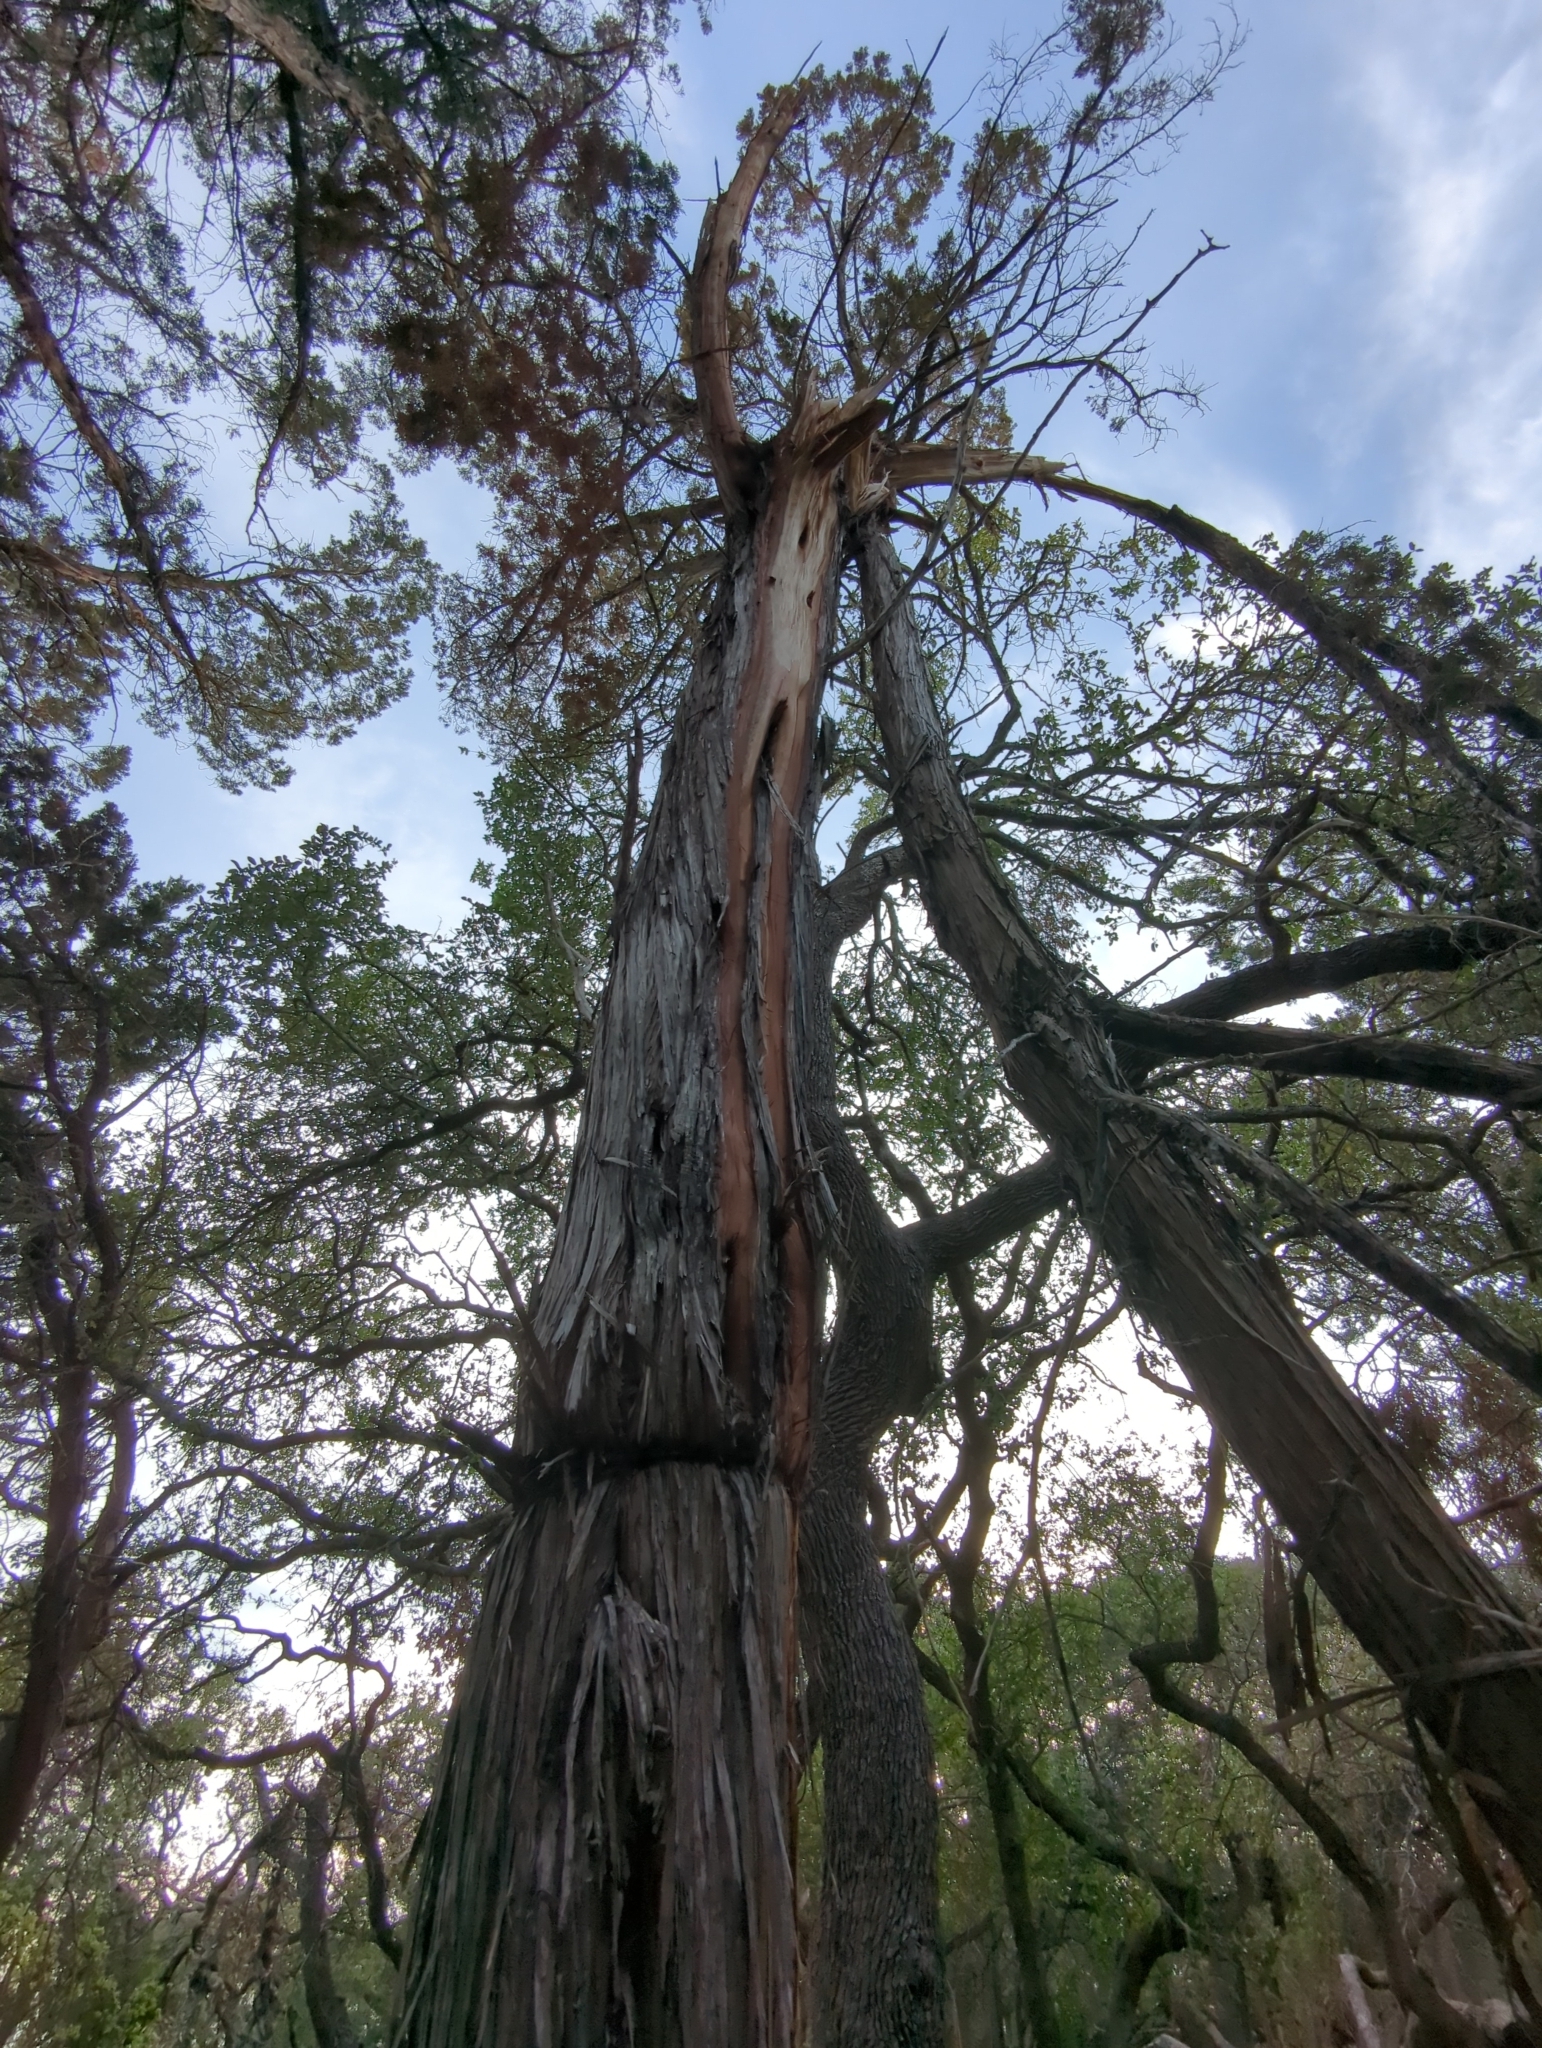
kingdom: Plantae
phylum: Tracheophyta
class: Pinopsida
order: Pinales
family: Cupressaceae
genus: Juniperus
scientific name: Juniperus ashei
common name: Mexican juniper
